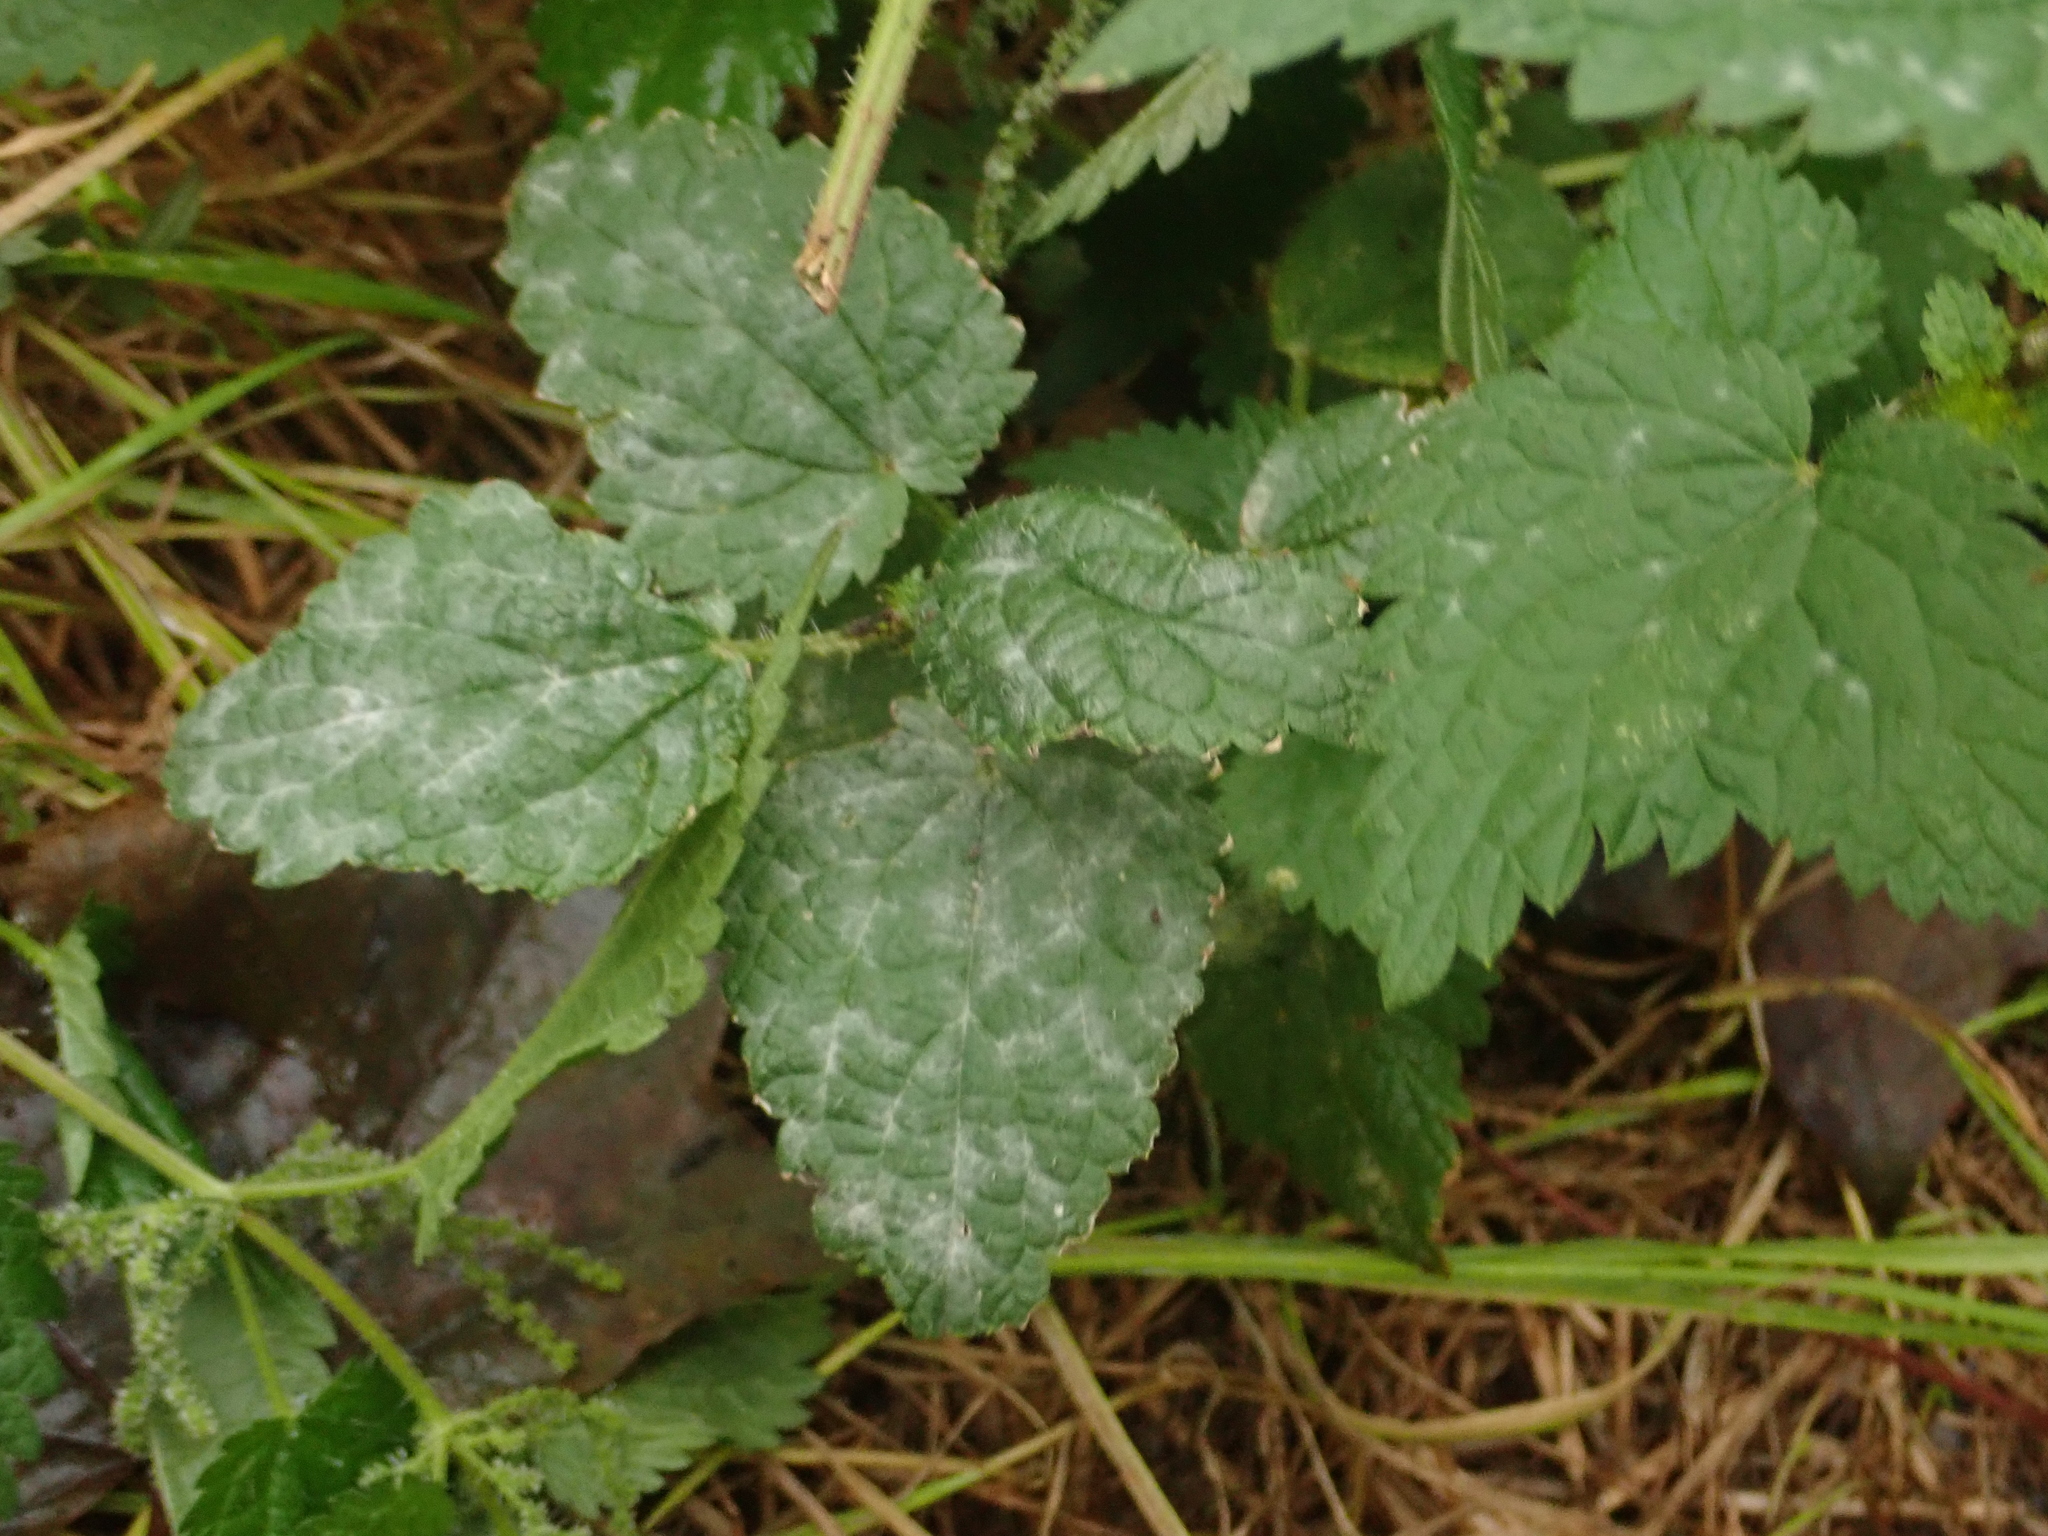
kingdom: Plantae
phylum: Tracheophyta
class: Magnoliopsida
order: Rosales
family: Urticaceae
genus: Urtica
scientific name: Urtica dioica
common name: Common nettle
